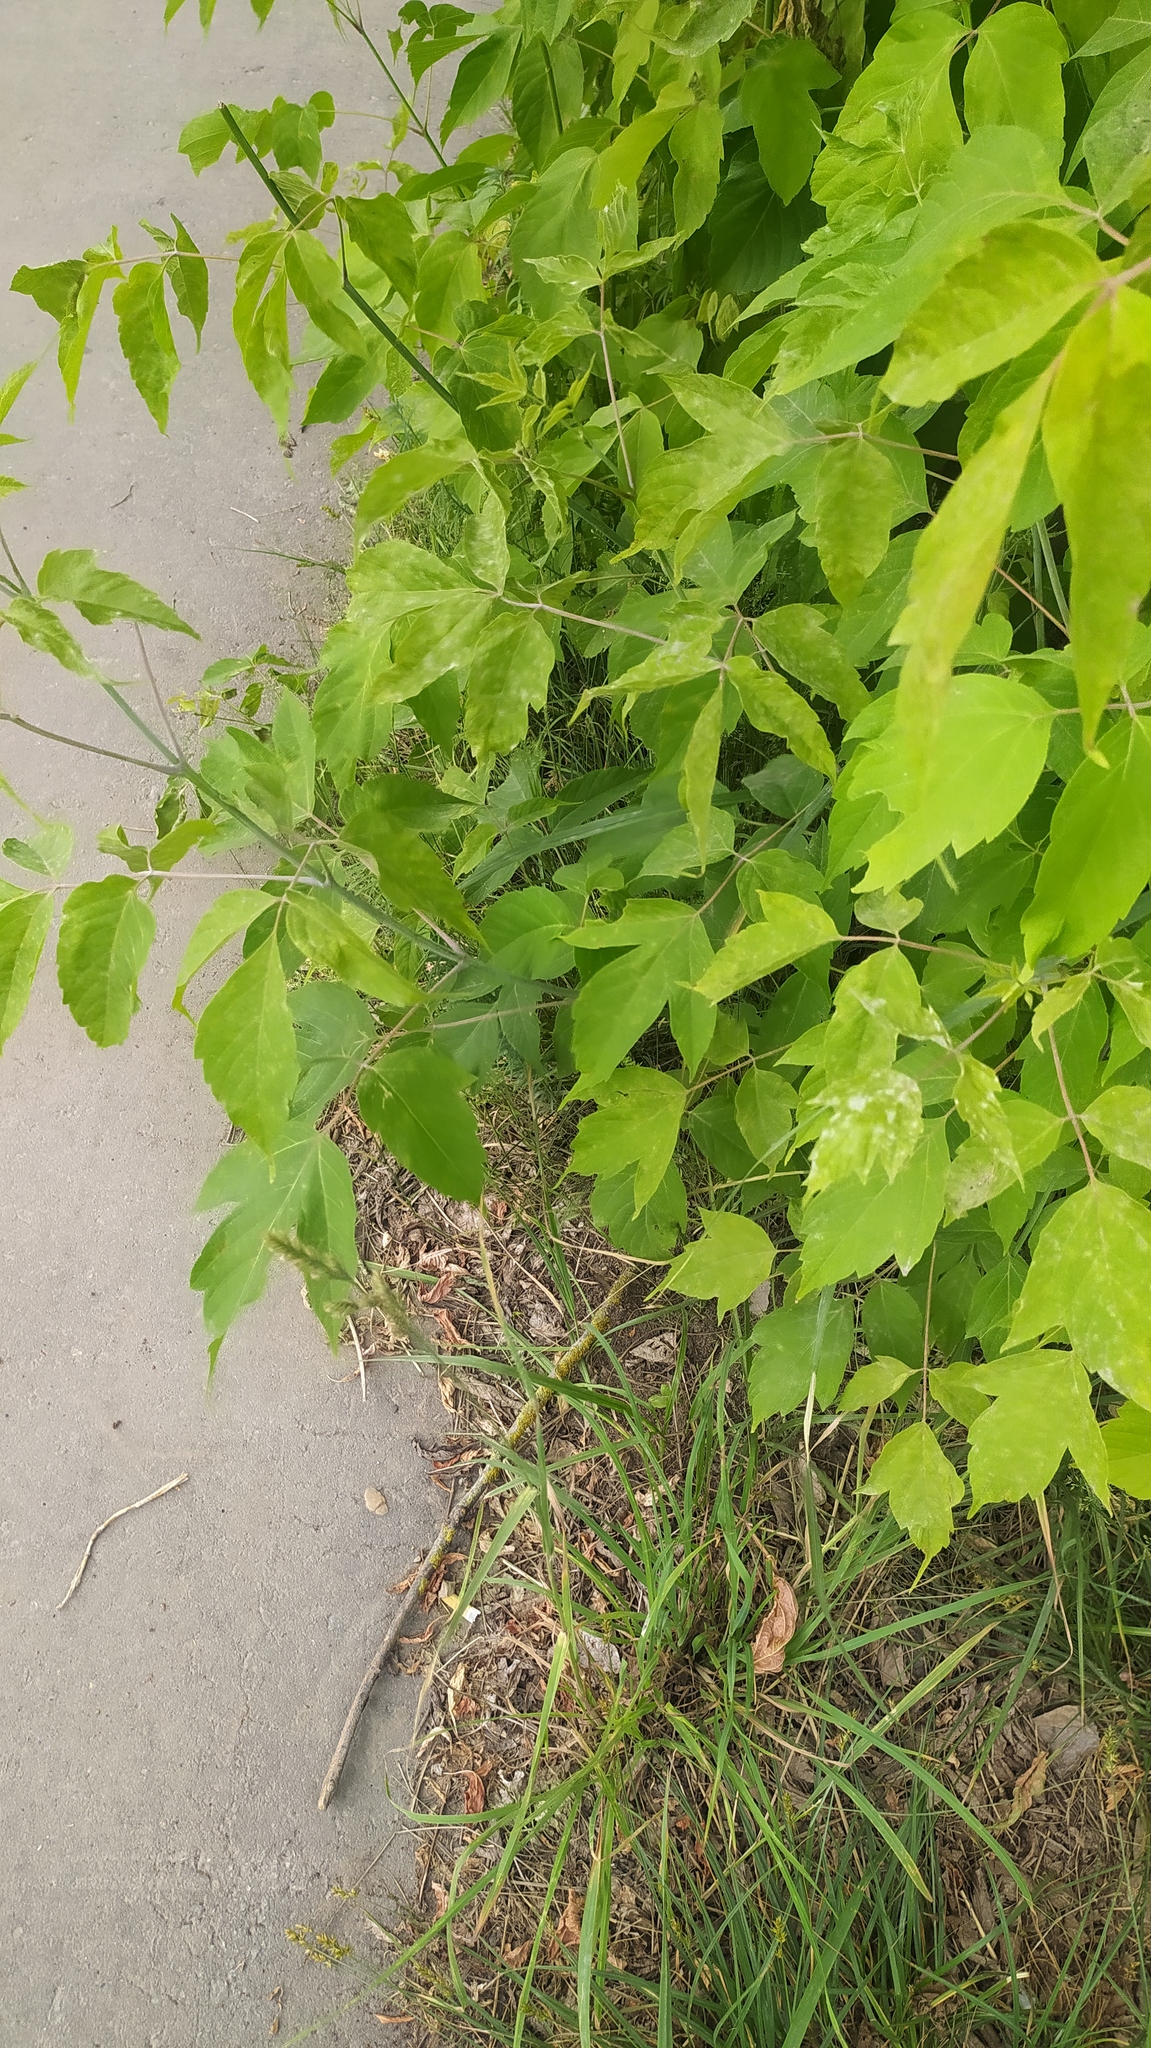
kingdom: Plantae
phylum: Tracheophyta
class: Magnoliopsida
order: Sapindales
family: Sapindaceae
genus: Acer
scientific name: Acer negundo
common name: Ashleaf maple
